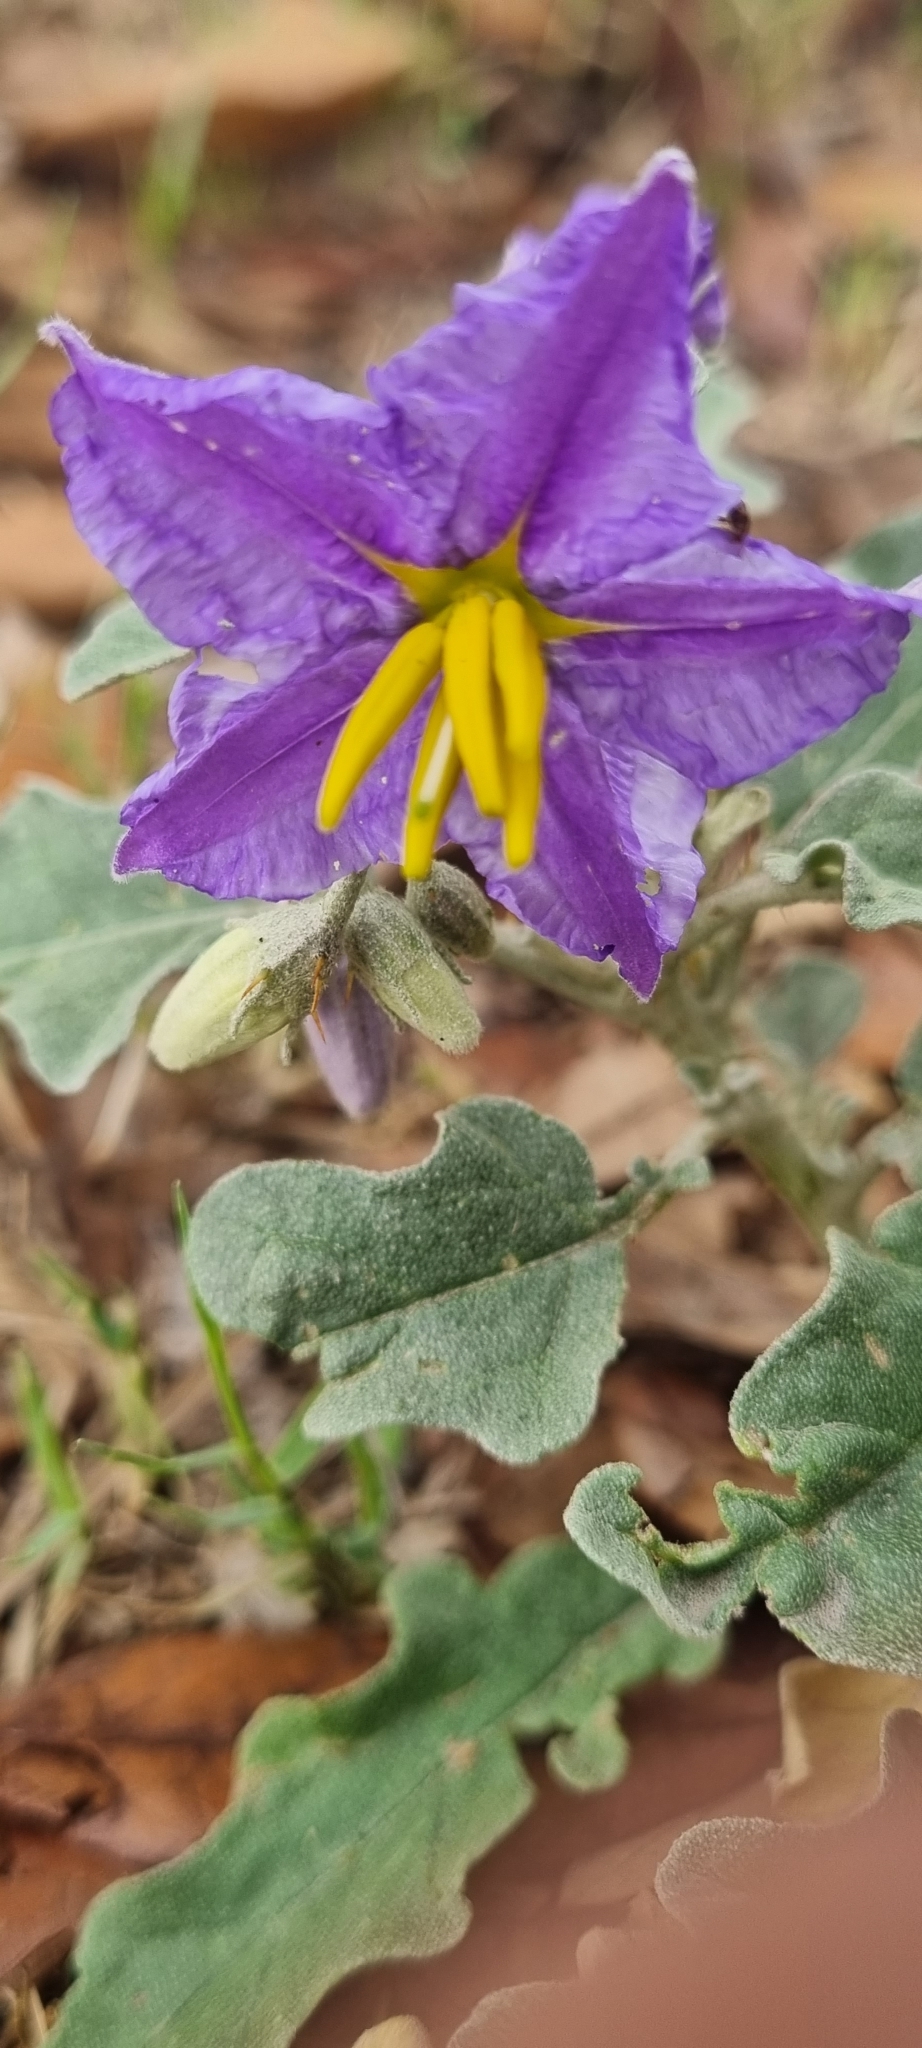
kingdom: Plantae
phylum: Tracheophyta
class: Magnoliopsida
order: Solanales
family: Solanaceae
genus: Solanum
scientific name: Solanum elaeagnifolium
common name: Silverleaf nightshade
